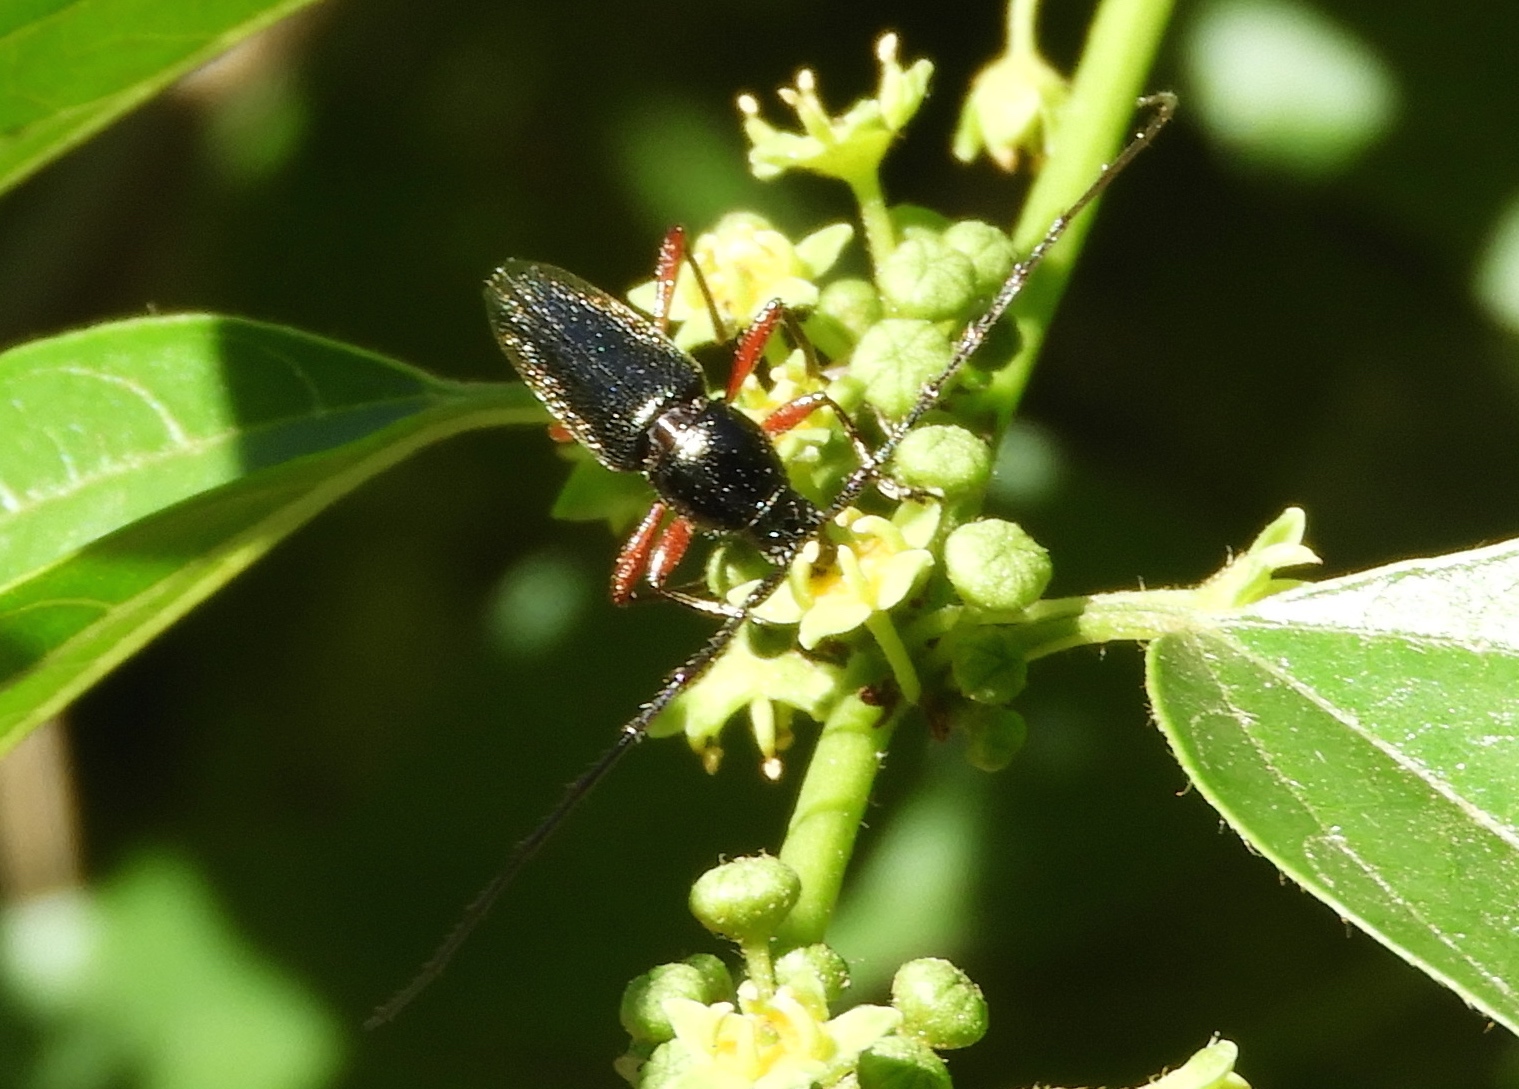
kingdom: Animalia
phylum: Arthropoda
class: Insecta
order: Coleoptera
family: Cerambycidae
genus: Stenosphenus
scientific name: Stenosphenus
